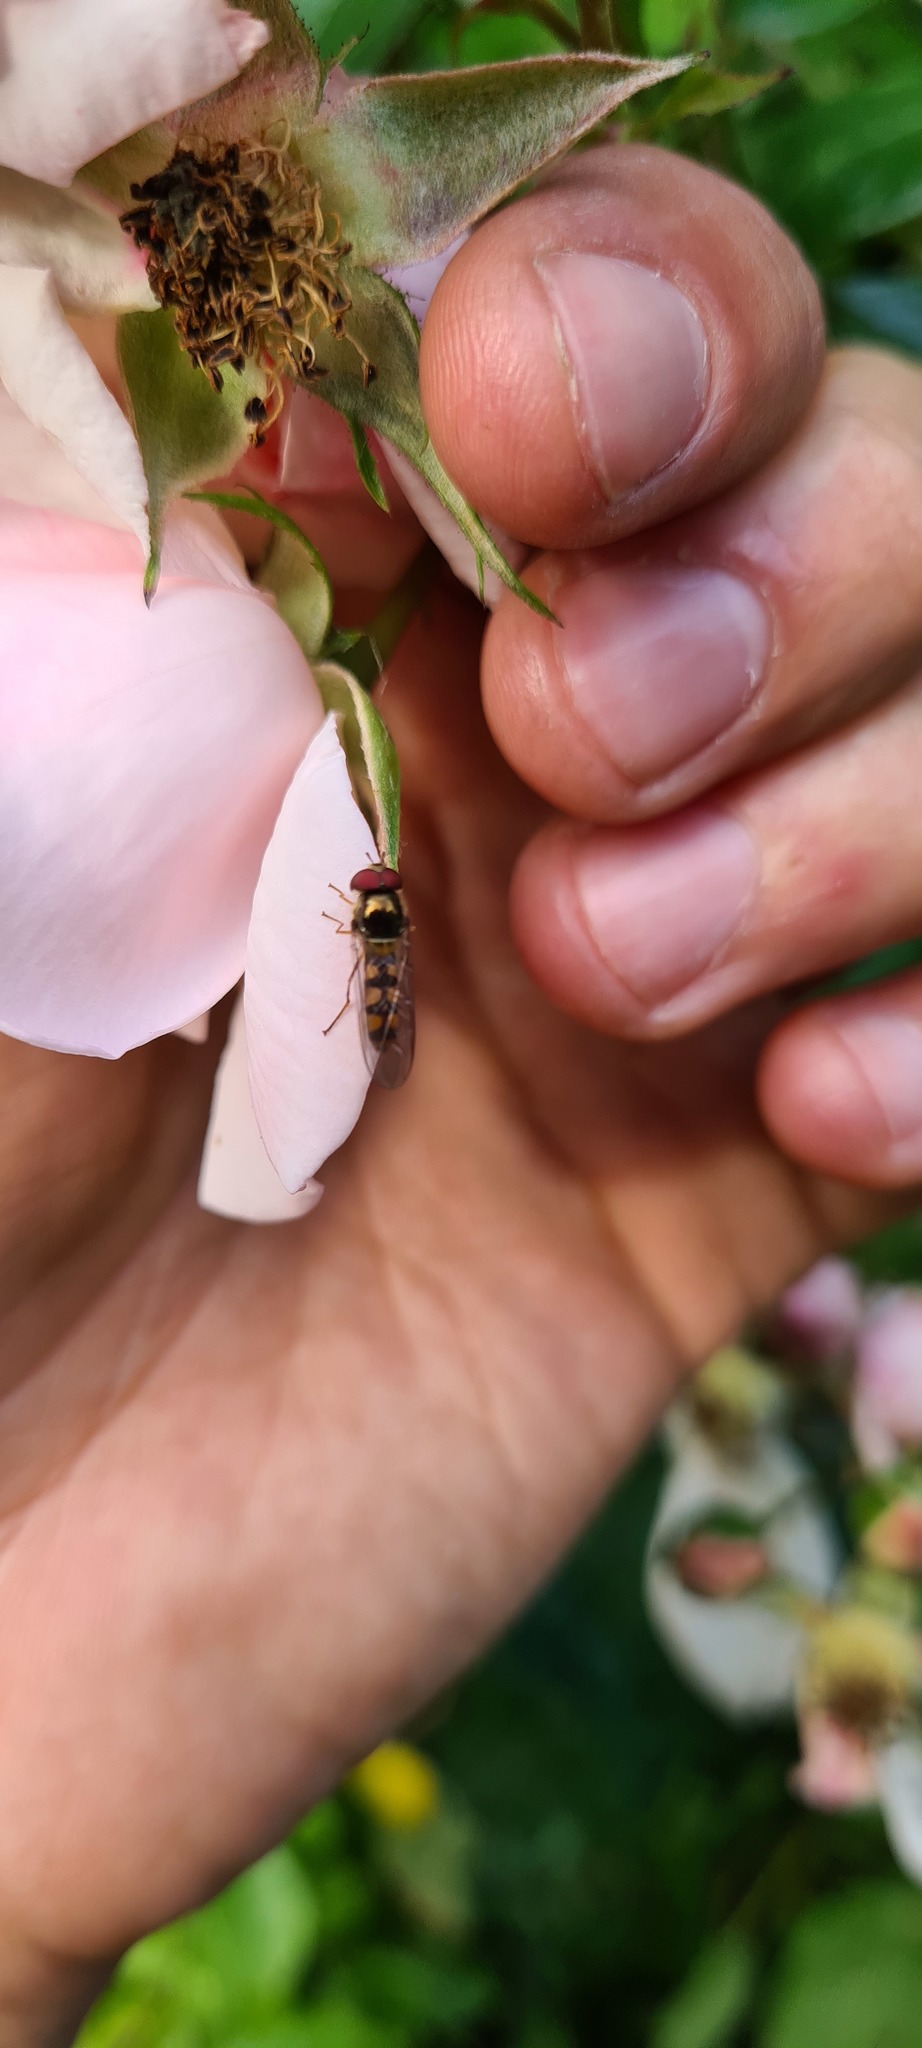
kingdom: Animalia
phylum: Arthropoda
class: Insecta
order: Diptera
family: Syrphidae
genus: Meliscaeva
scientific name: Meliscaeva auricollis
